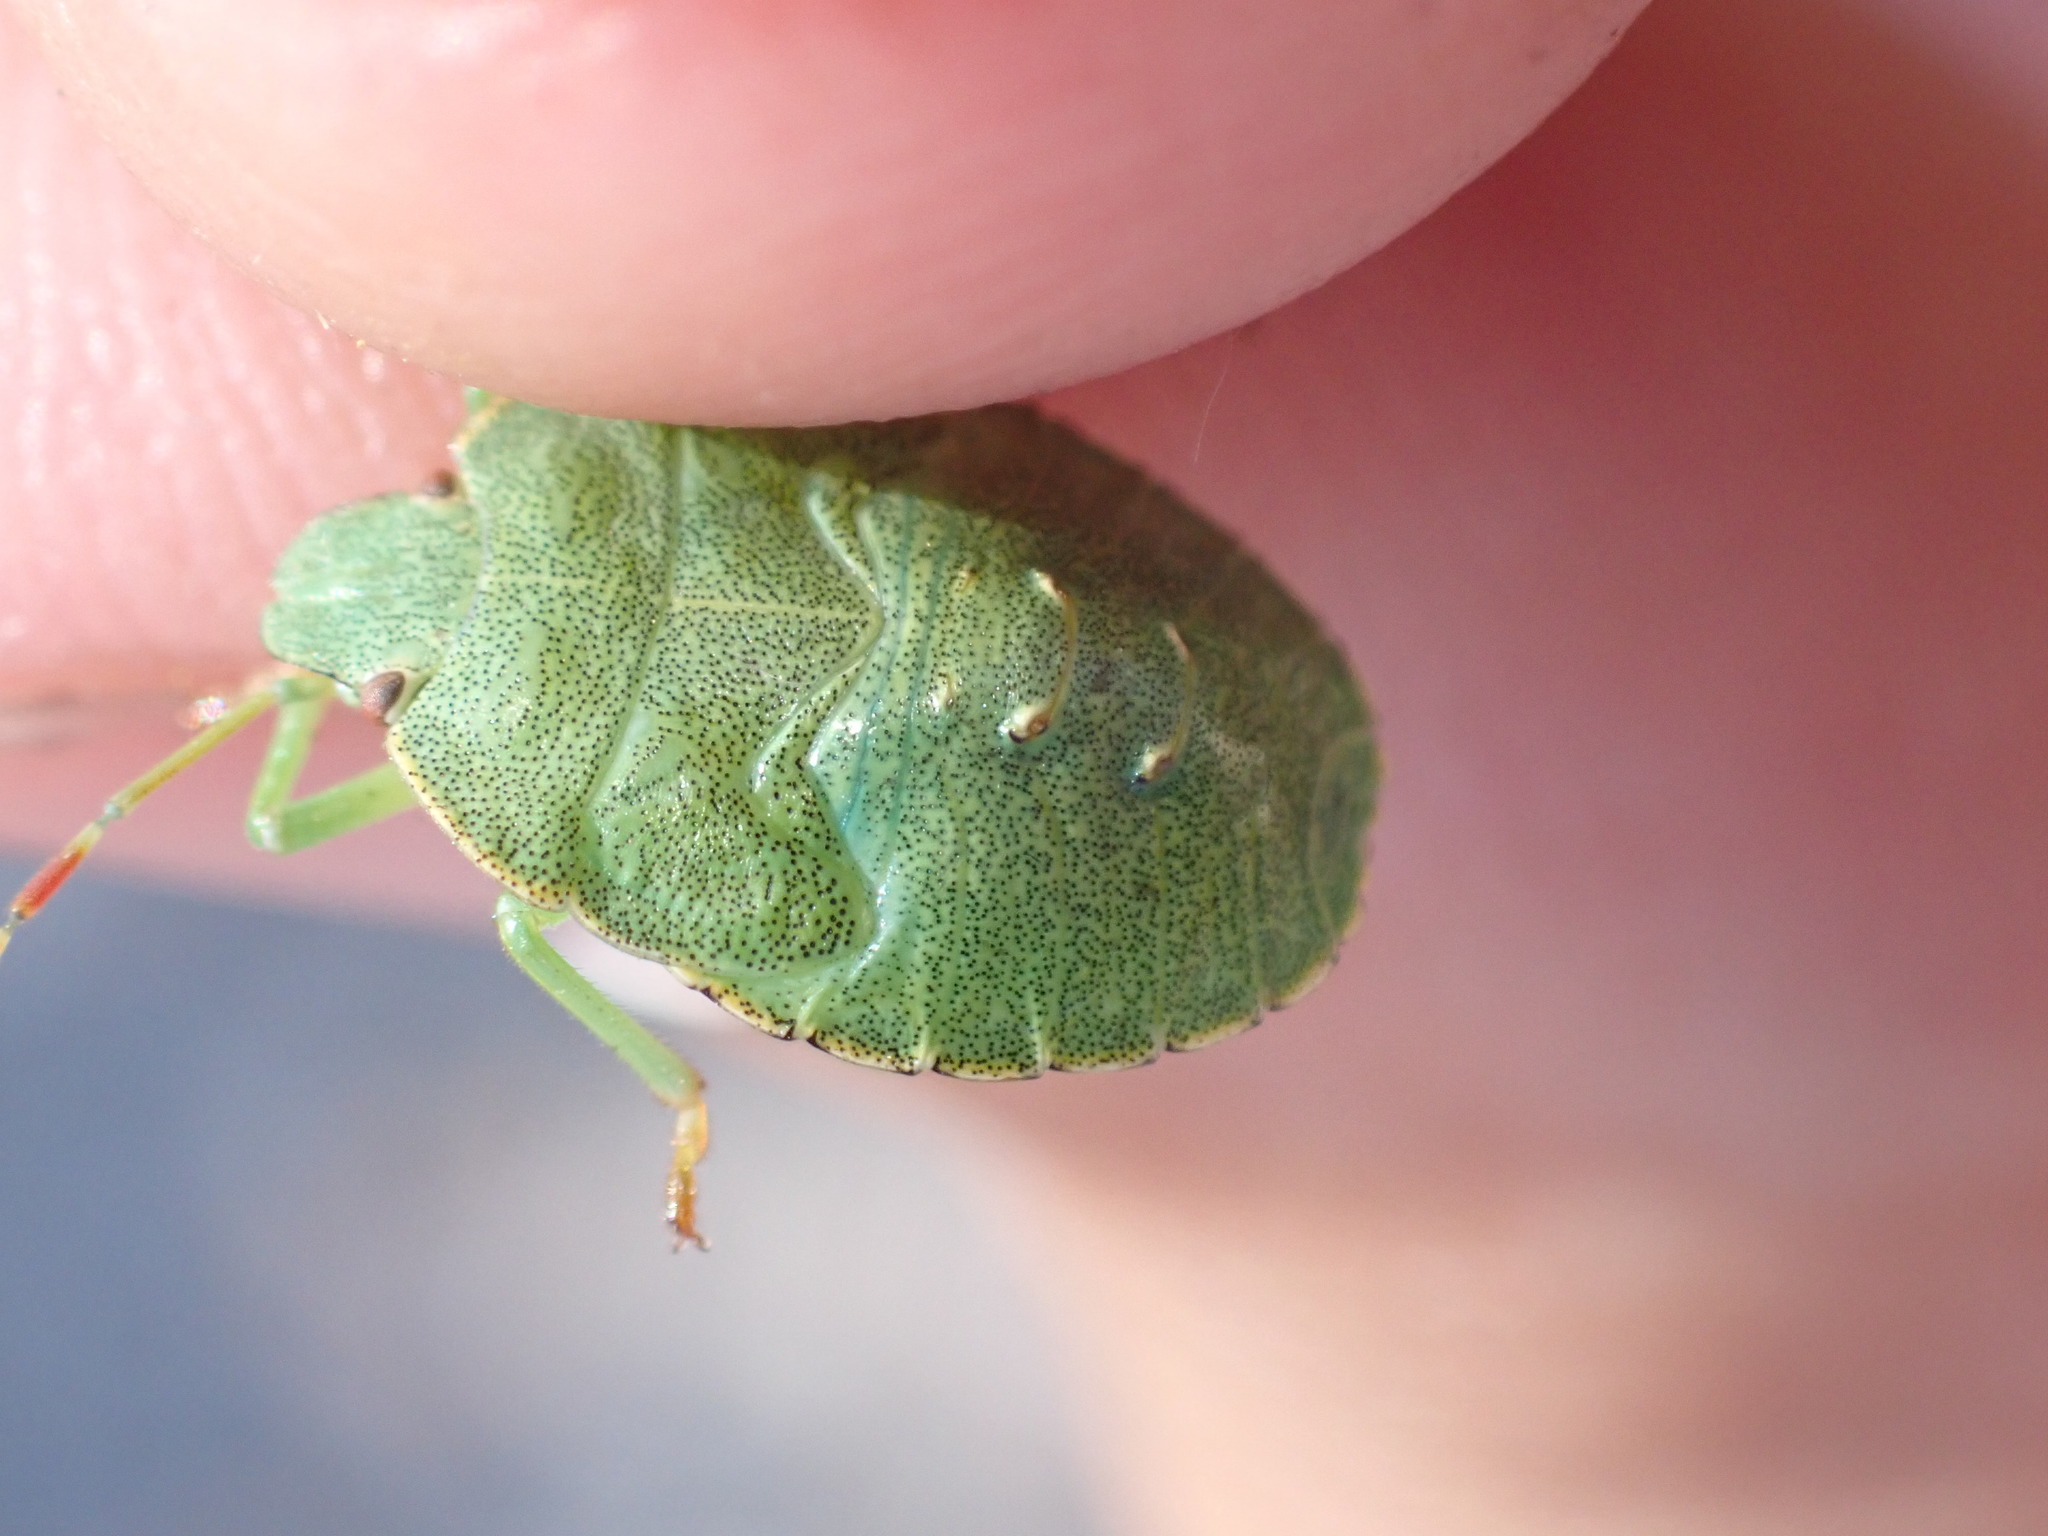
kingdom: Animalia
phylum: Arthropoda
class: Insecta
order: Hemiptera
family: Pentatomidae
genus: Palomena
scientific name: Palomena prasina
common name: Green shieldbug
